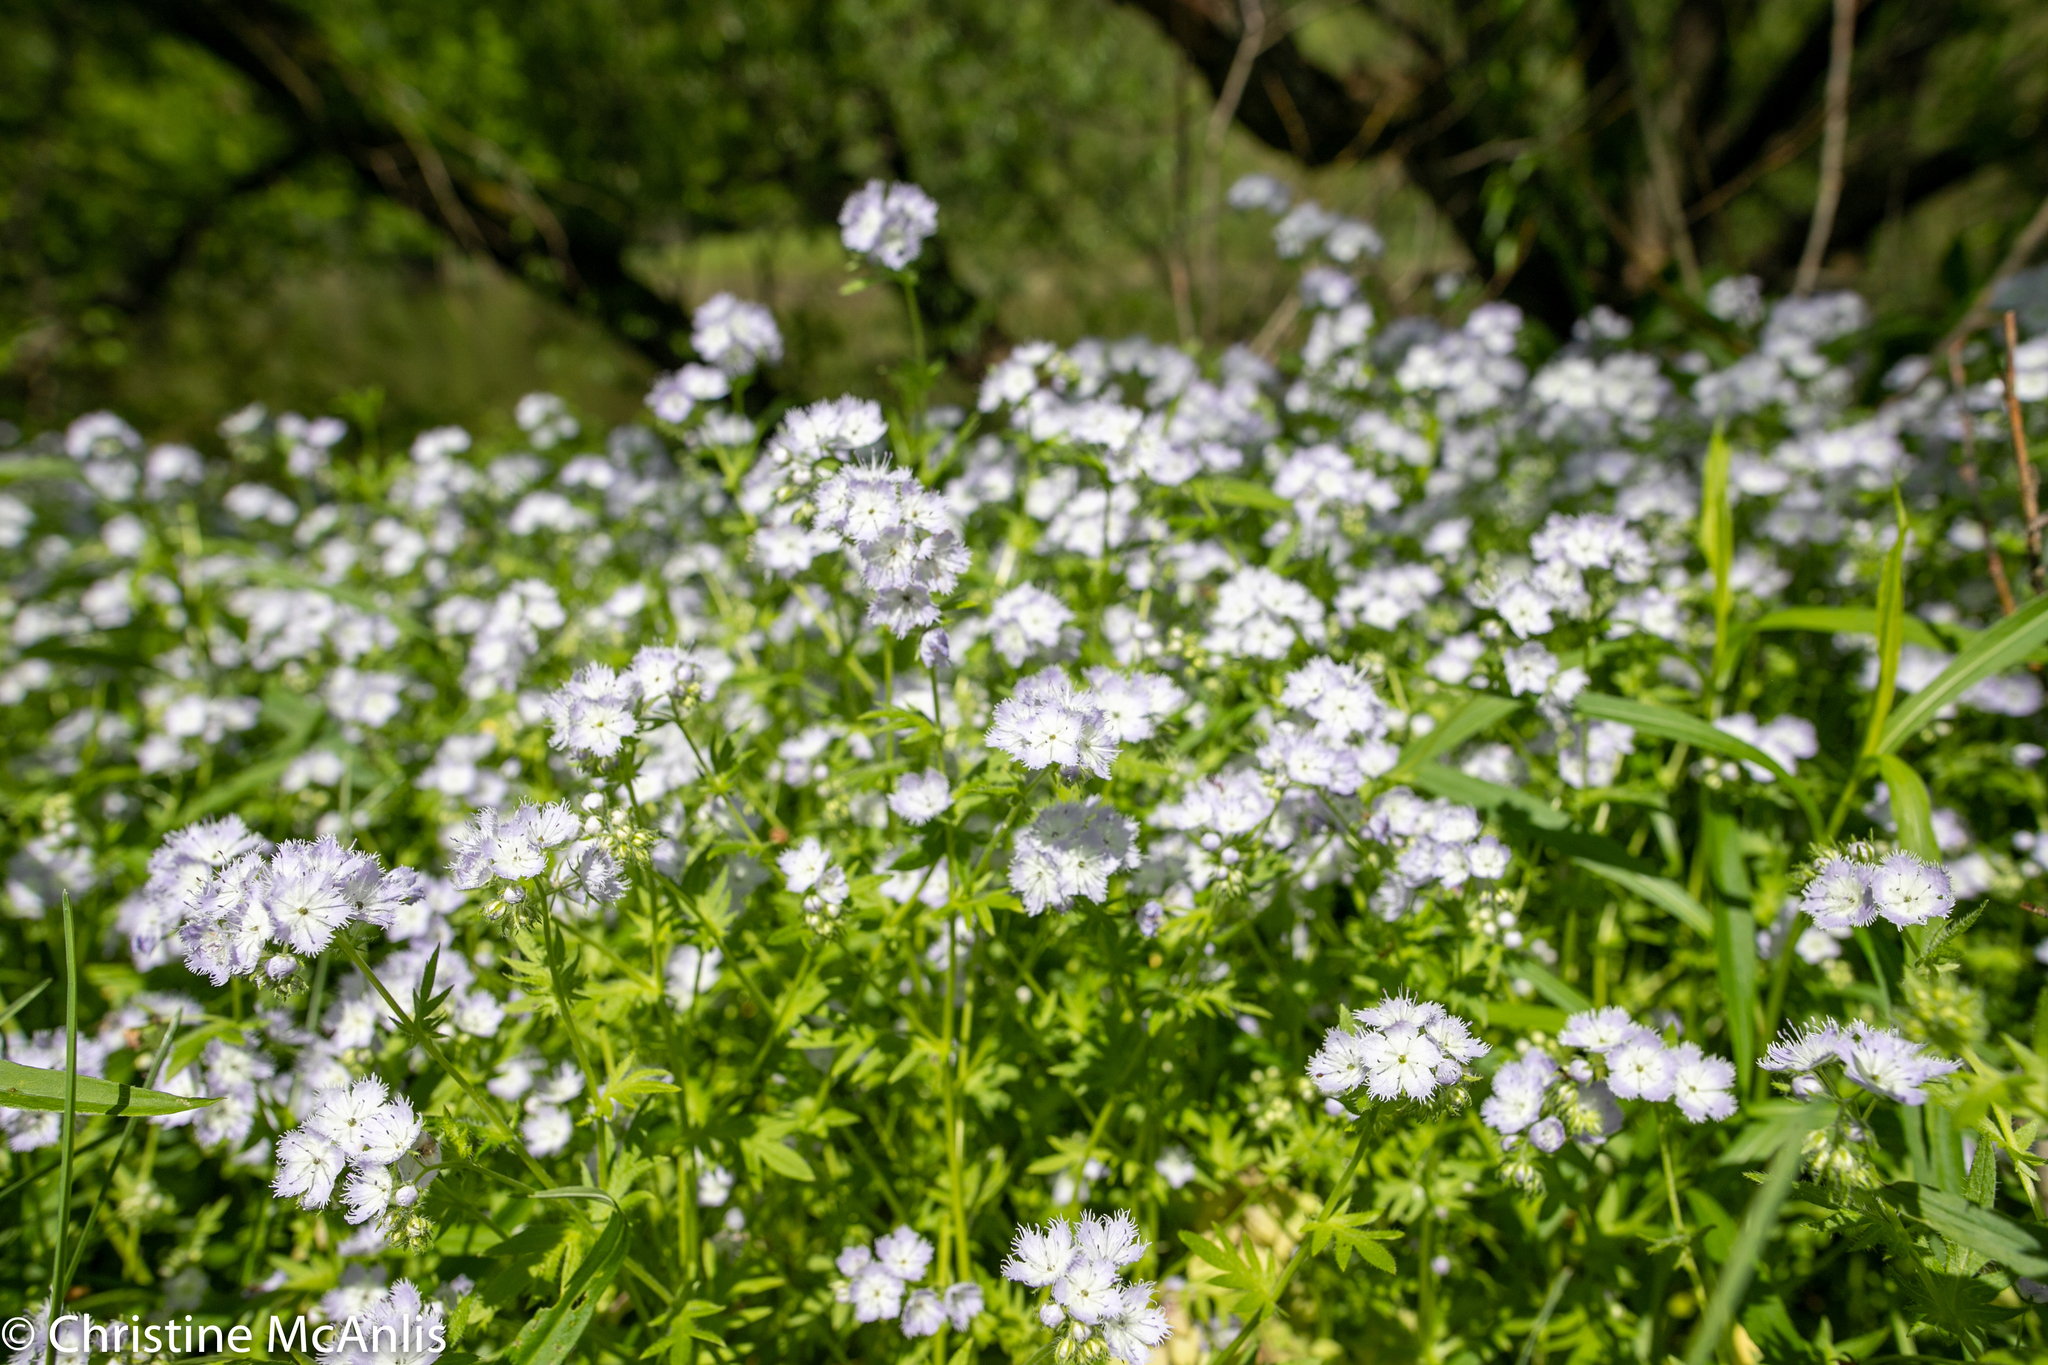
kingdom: Plantae
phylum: Tracheophyta
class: Magnoliopsida
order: Boraginales
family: Hydrophyllaceae
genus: Phacelia
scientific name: Phacelia purshii
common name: Miami-mist
